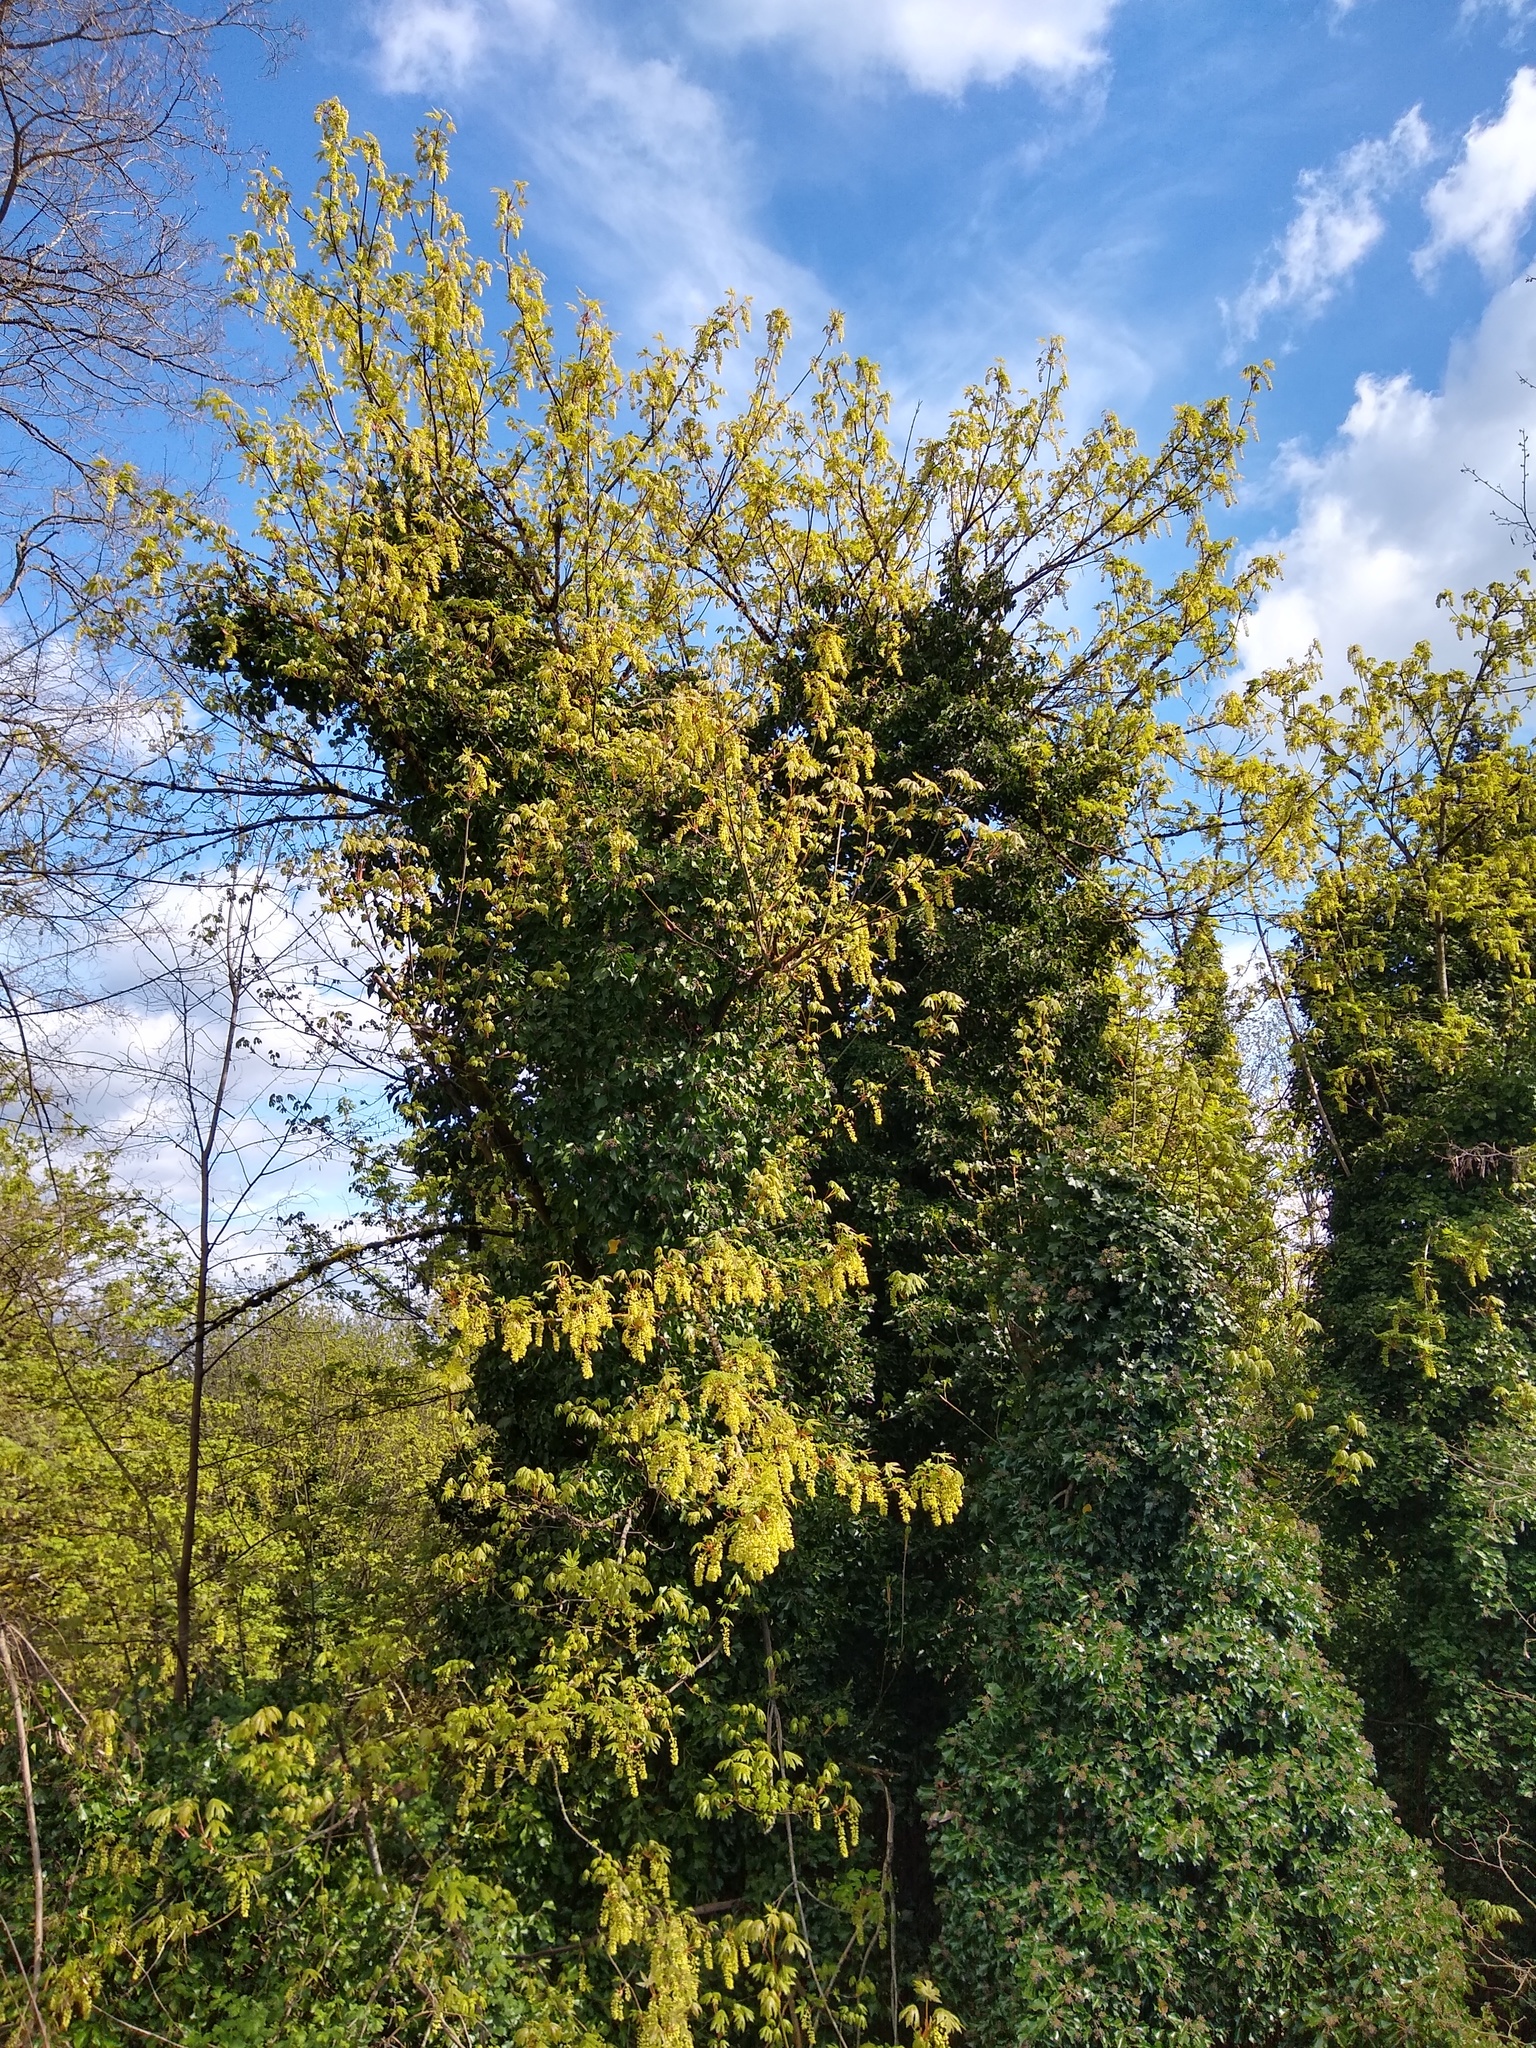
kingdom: Plantae
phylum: Tracheophyta
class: Magnoliopsida
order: Sapindales
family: Sapindaceae
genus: Acer
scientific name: Acer macrophyllum
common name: Oregon maple
